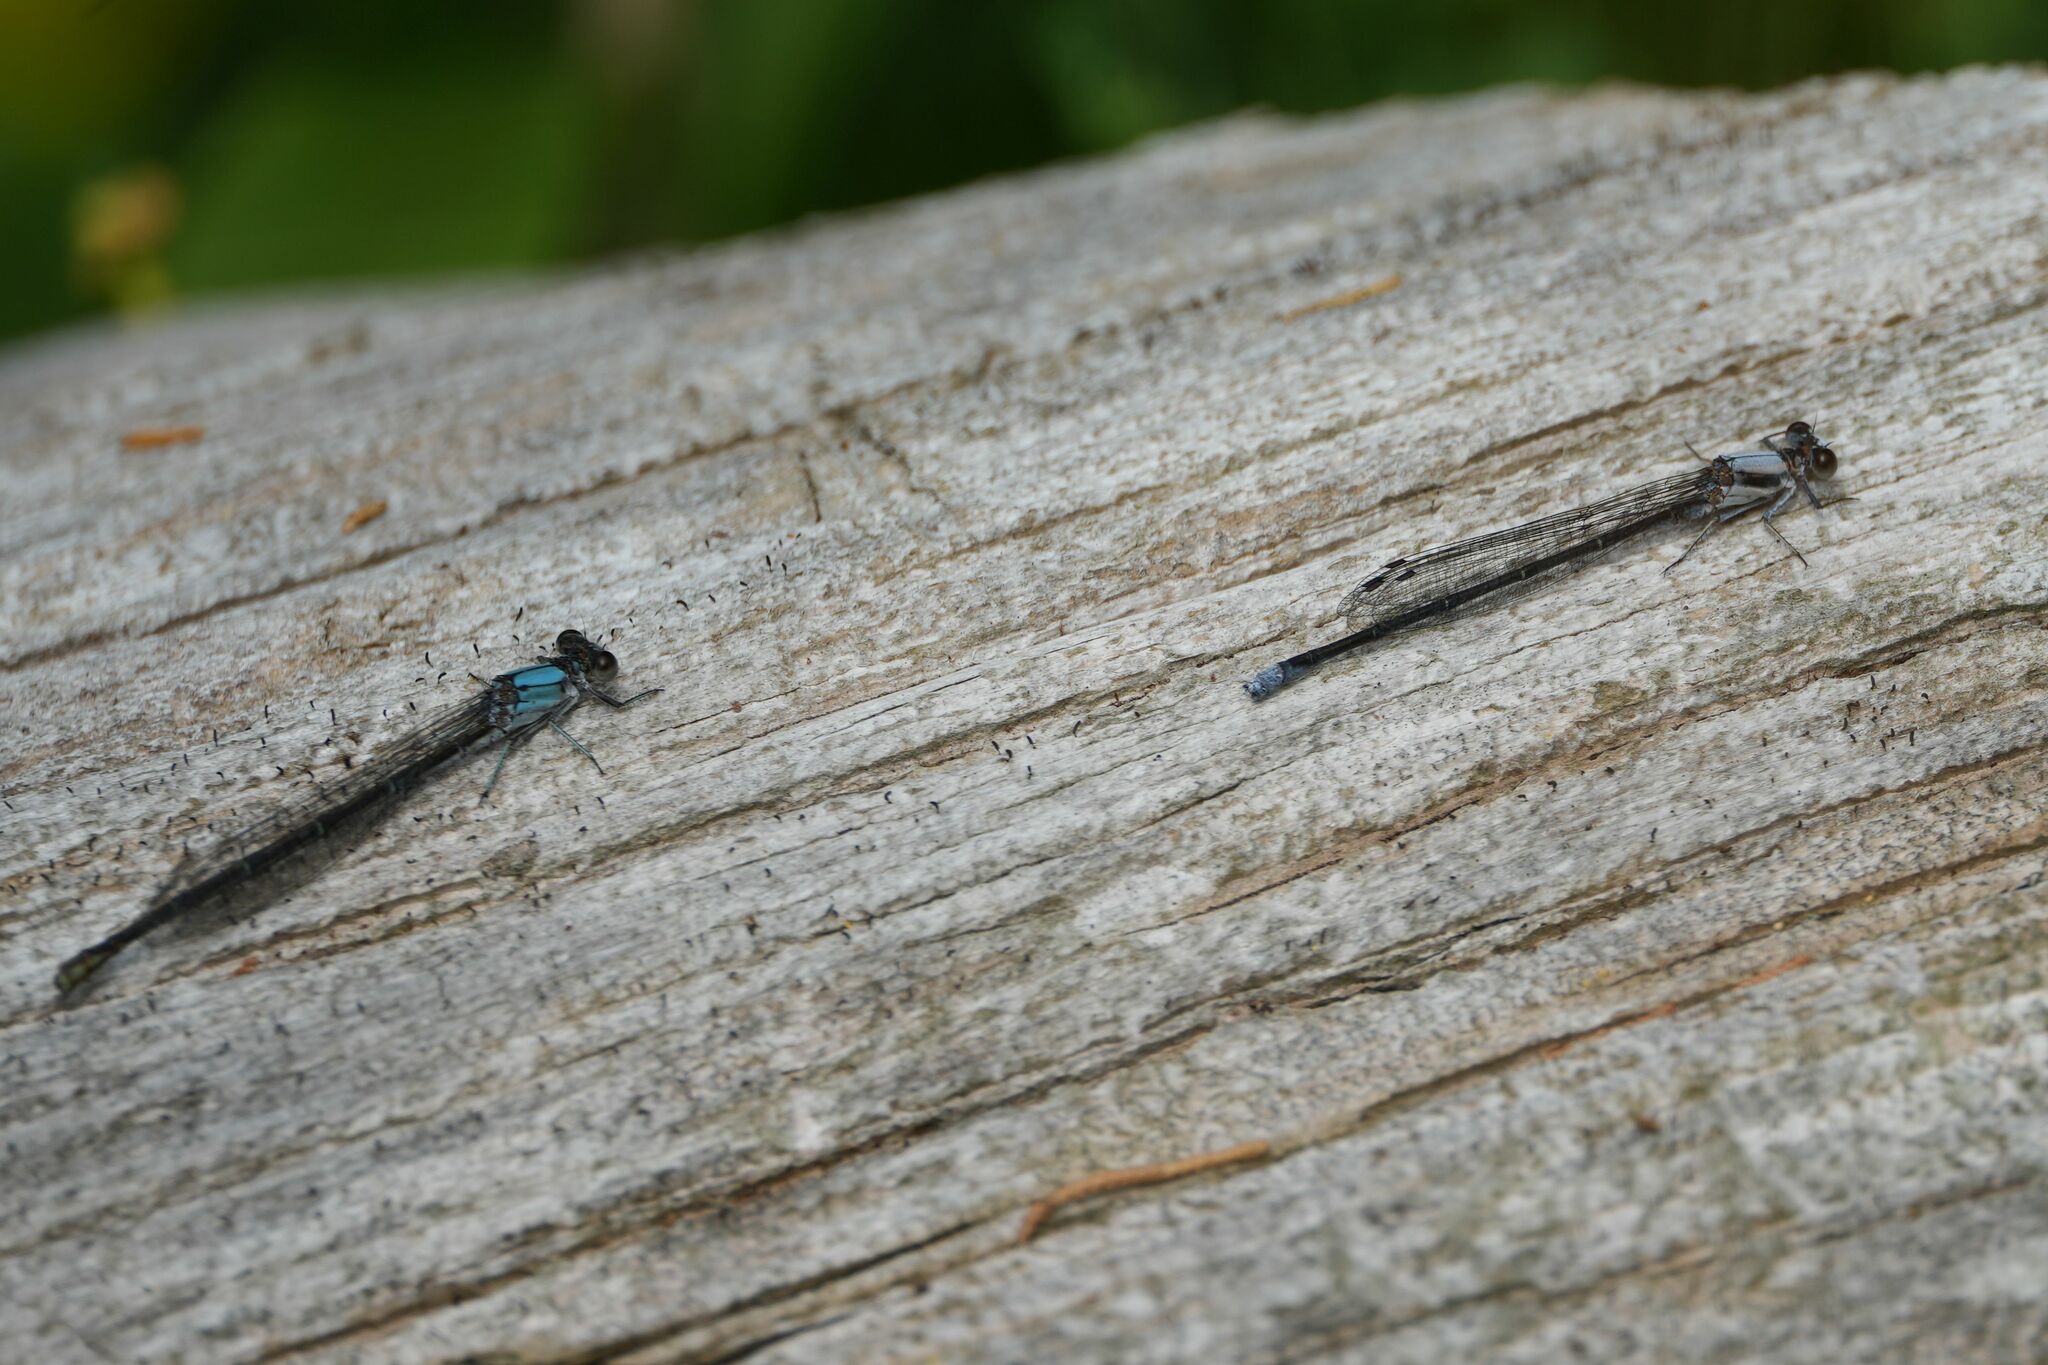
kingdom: Animalia
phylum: Arthropoda
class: Insecta
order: Odonata
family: Coenagrionidae
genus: Argia
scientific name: Argia moesta
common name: Powdered dancer
